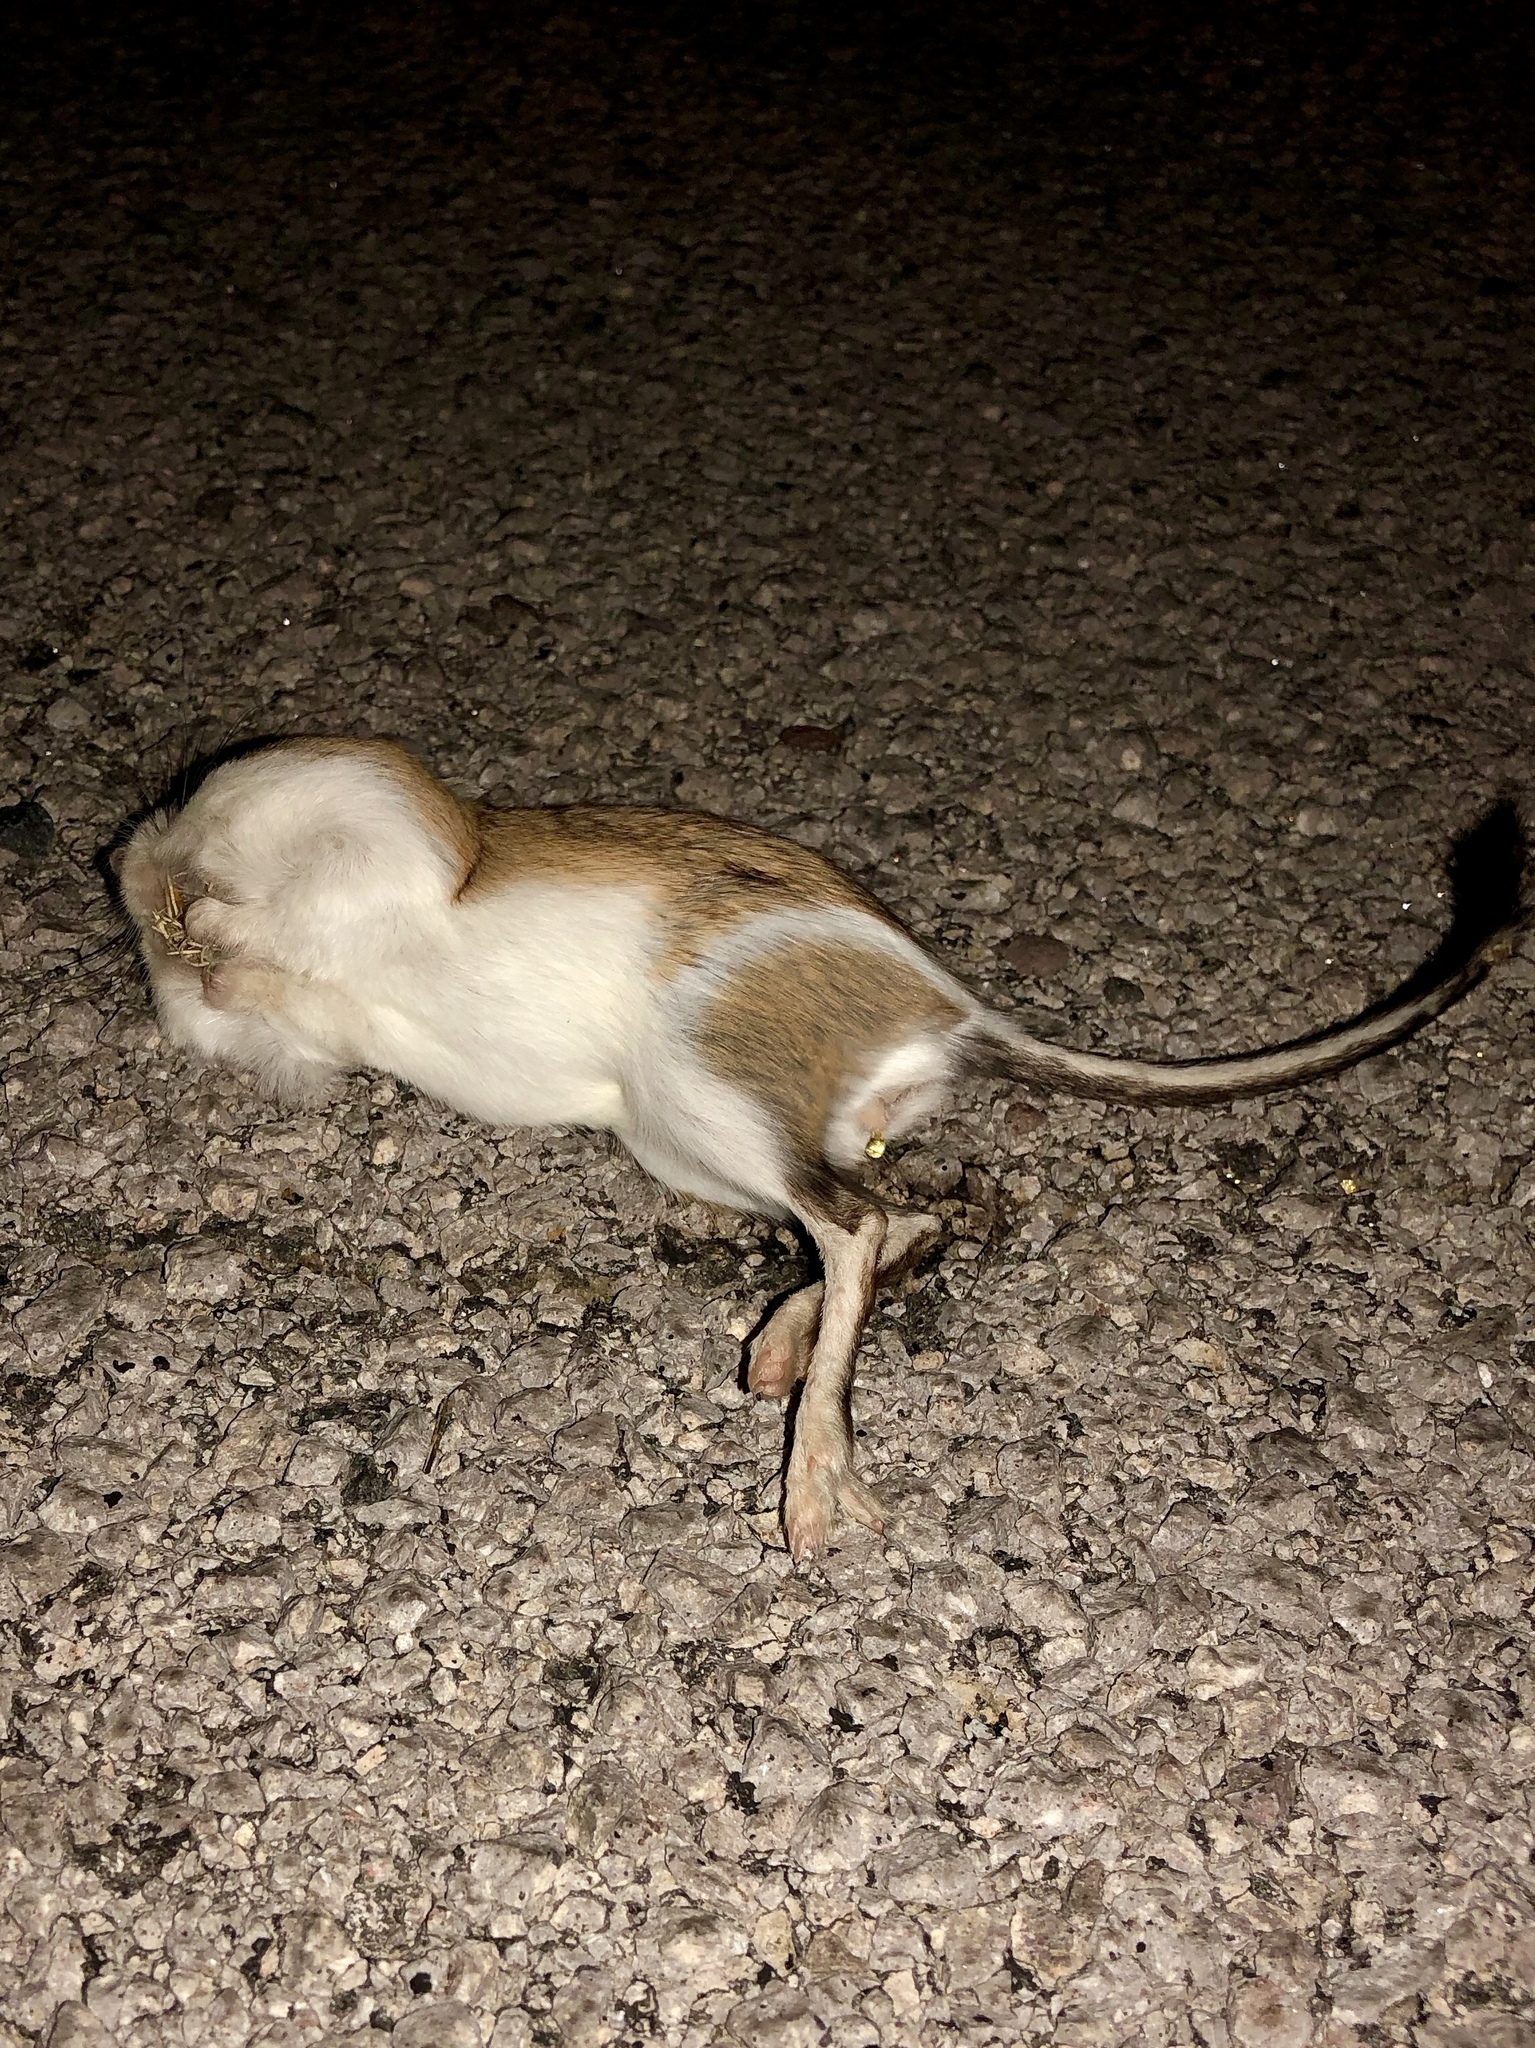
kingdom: Animalia
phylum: Chordata
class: Mammalia
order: Rodentia
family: Heteromyidae
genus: Dipodomys
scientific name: Dipodomys merriami
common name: Merriam's kangaroo rat
